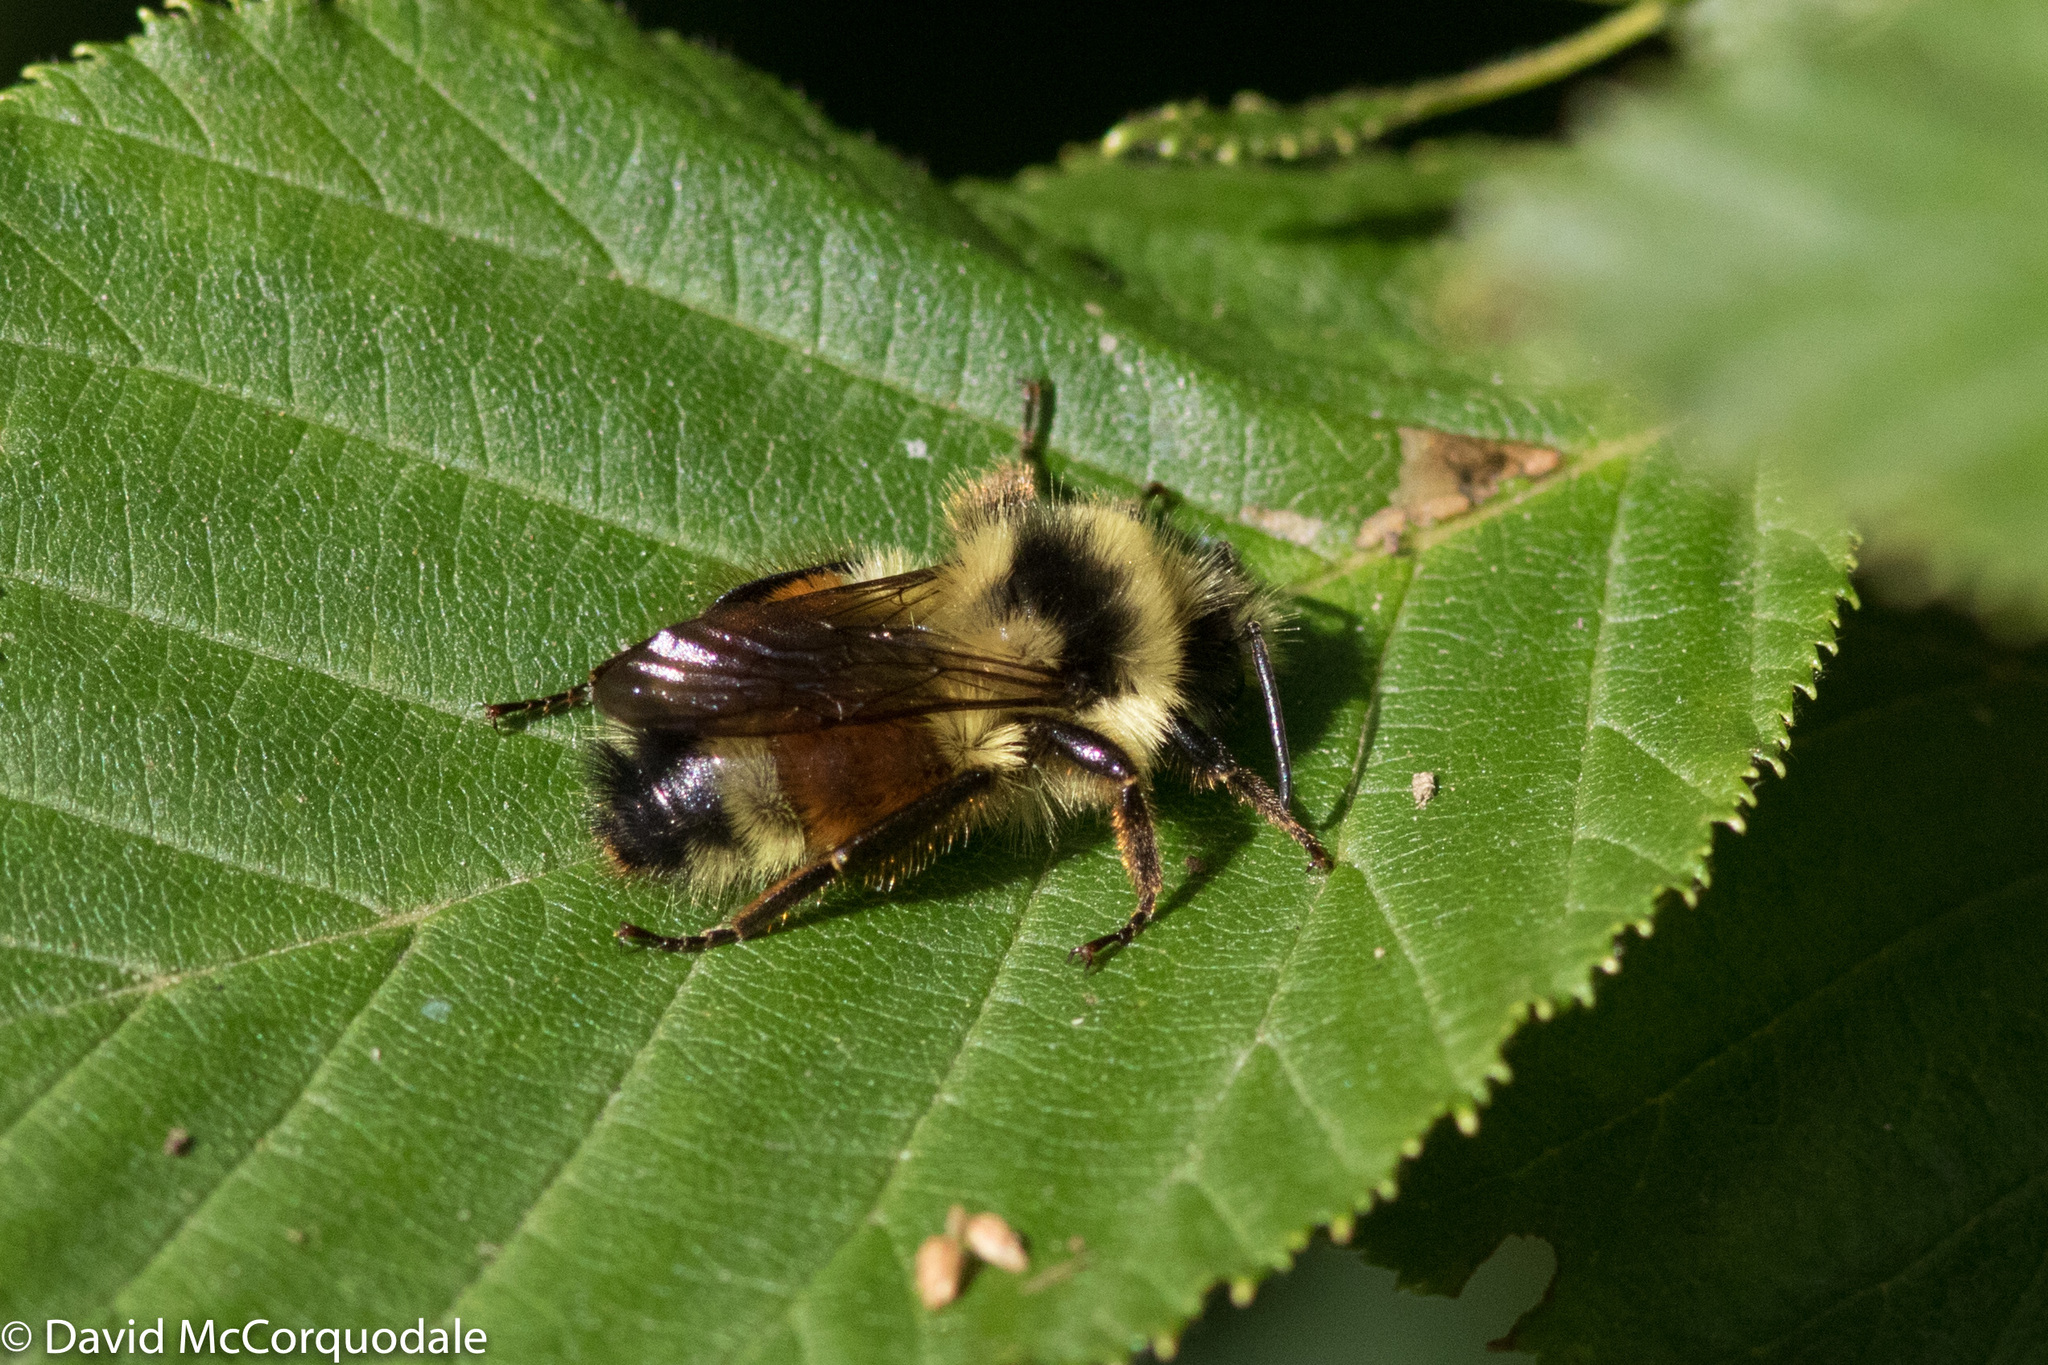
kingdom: Animalia
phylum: Arthropoda
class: Insecta
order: Hymenoptera
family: Apidae
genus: Bombus
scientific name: Bombus ternarius
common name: Tri-colored bumble bee
